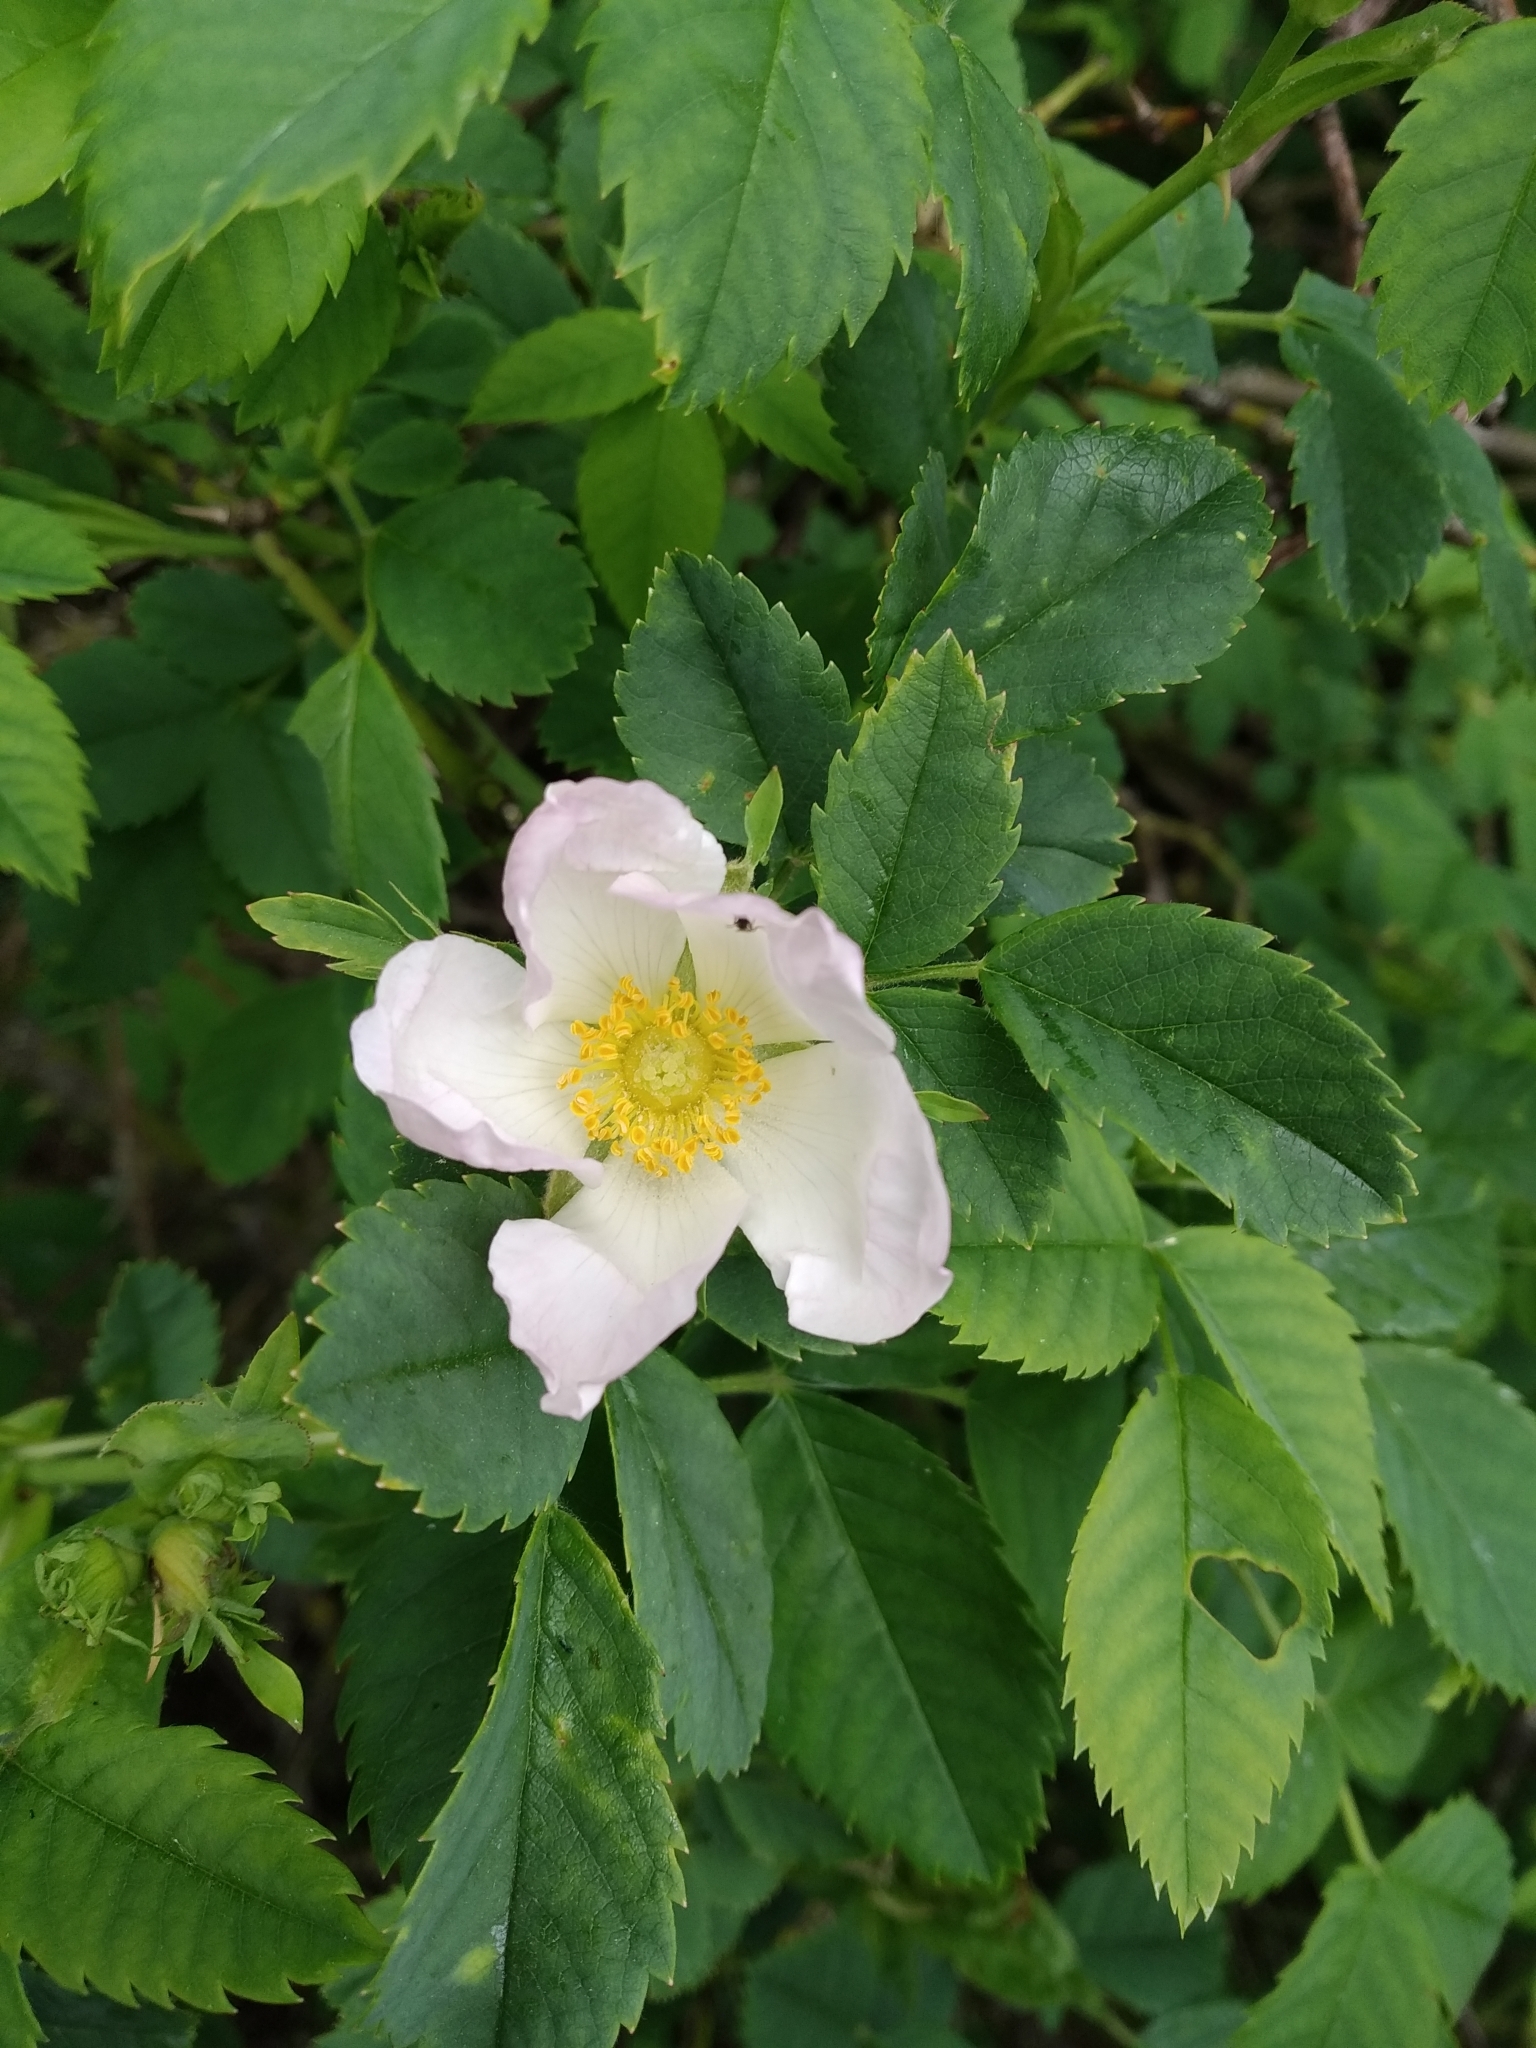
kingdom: Plantae
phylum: Tracheophyta
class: Magnoliopsida
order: Rosales
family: Rosaceae
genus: Rosa
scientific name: Rosa canina
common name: Dog rose
